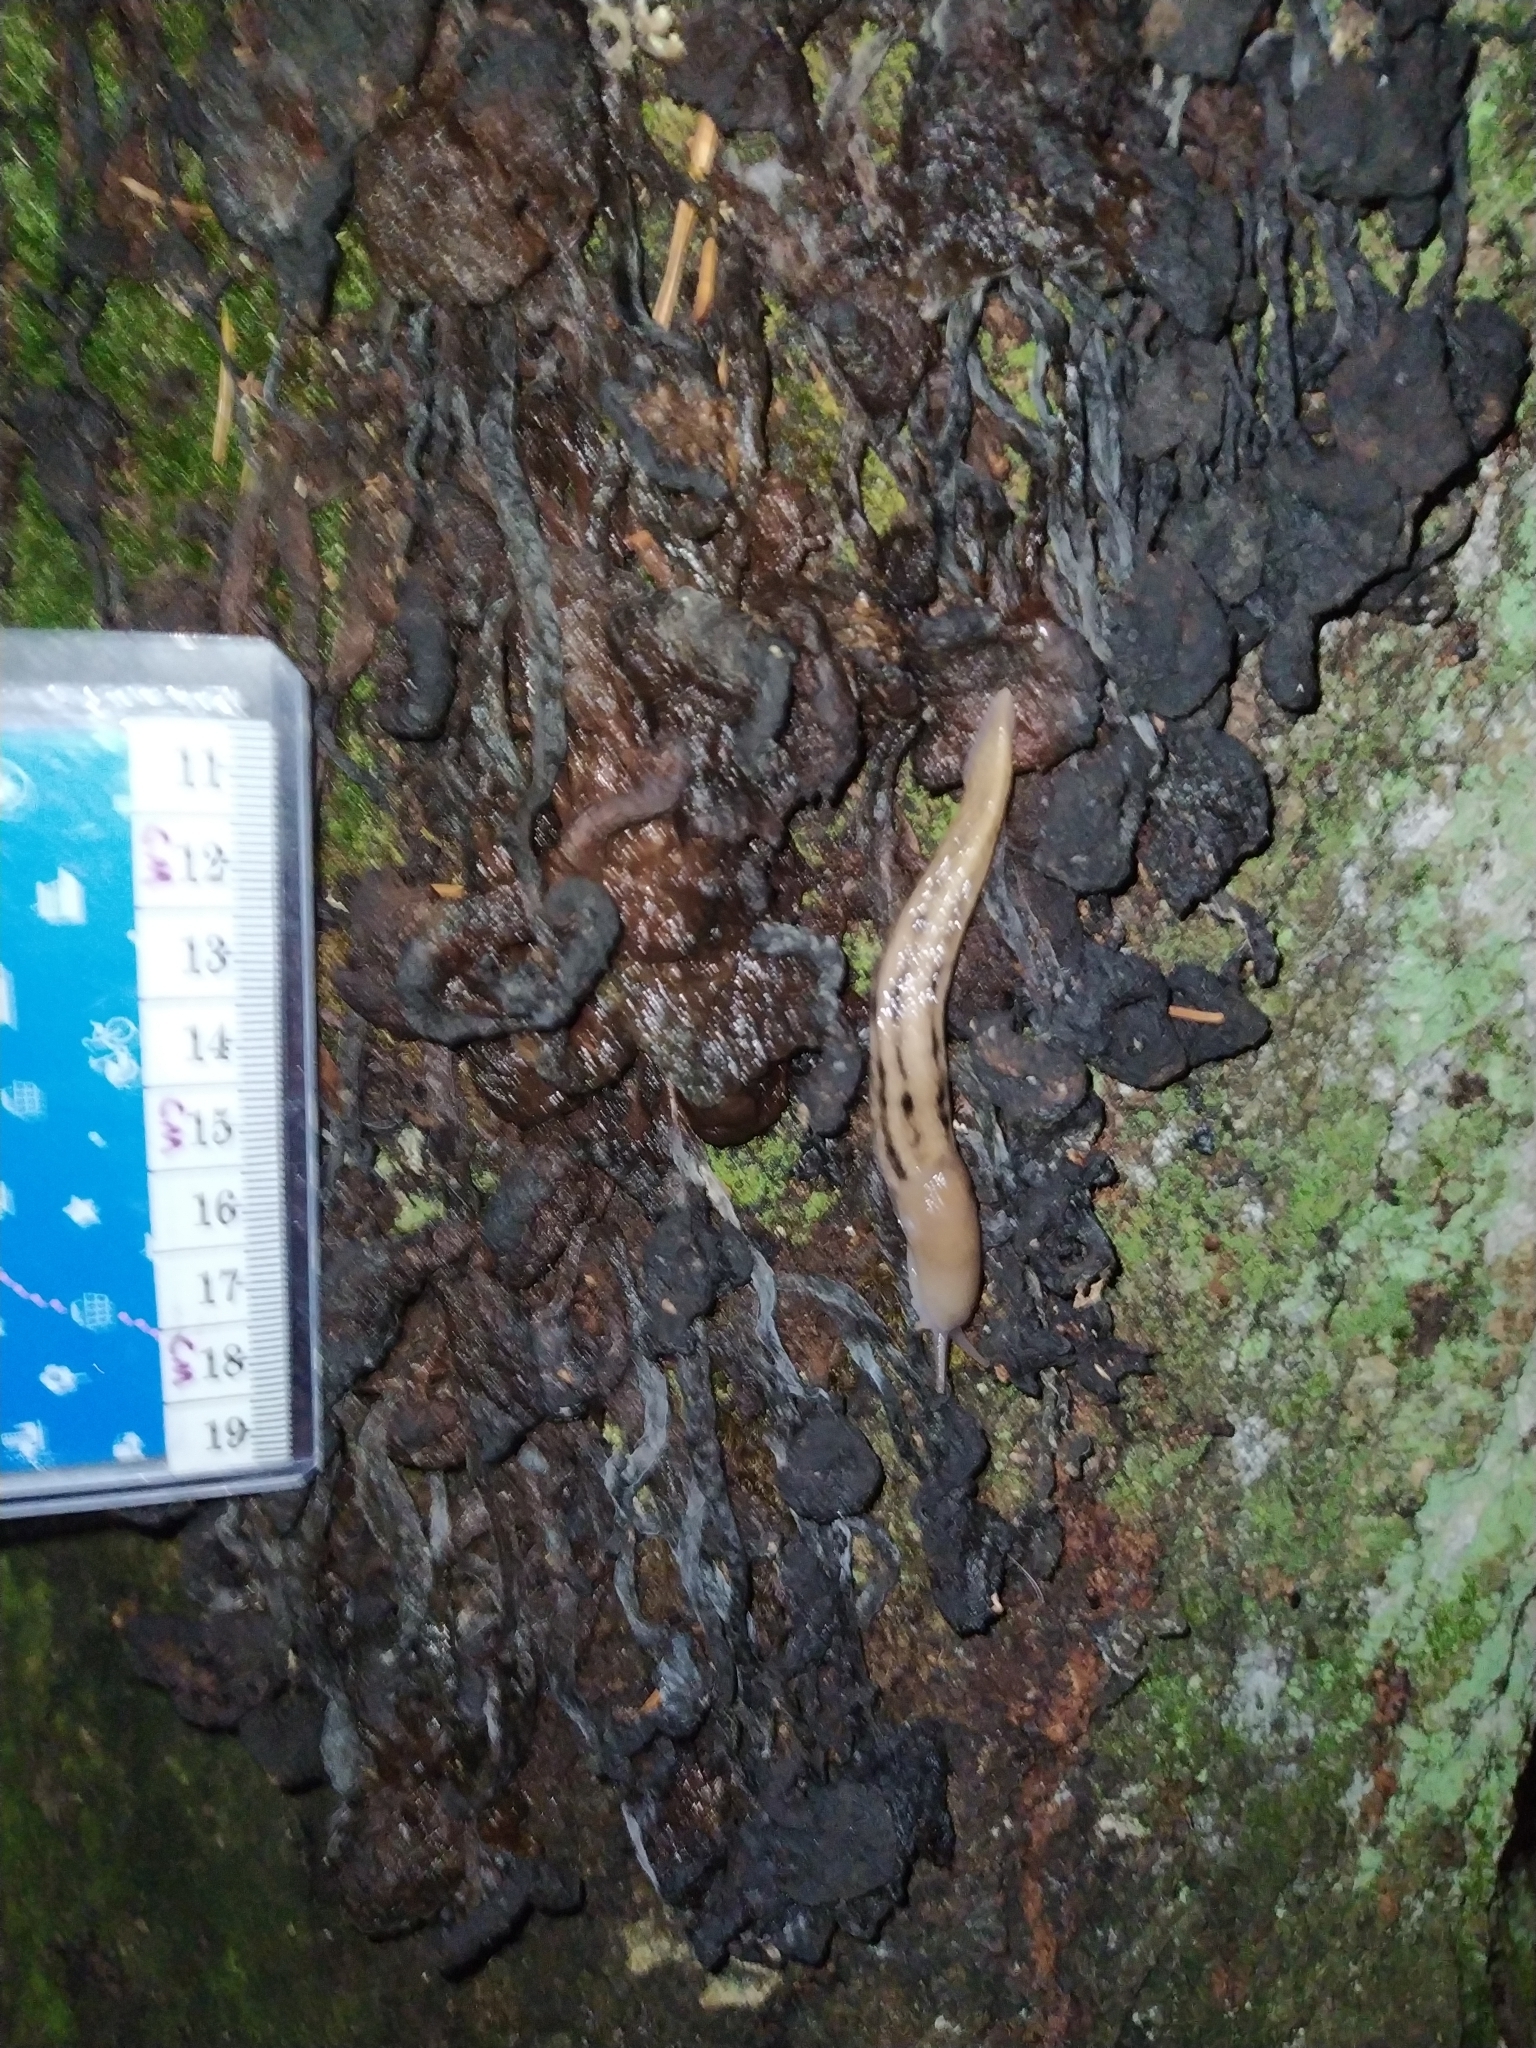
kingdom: Animalia
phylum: Mollusca
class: Gastropoda
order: Stylommatophora
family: Limacidae
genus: Limax
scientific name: Limax cinereoniger
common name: Ash-black slug
